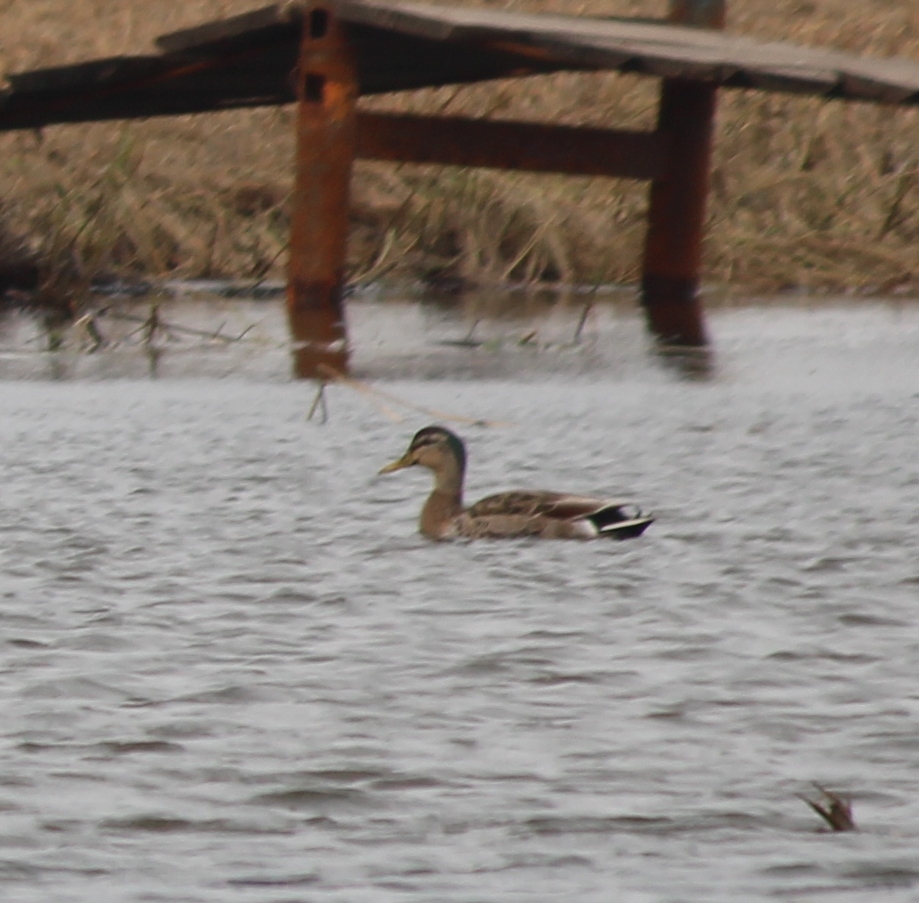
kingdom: Animalia
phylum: Chordata
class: Aves
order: Anseriformes
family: Anatidae
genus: Anas
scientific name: Anas platyrhynchos
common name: Mallard
